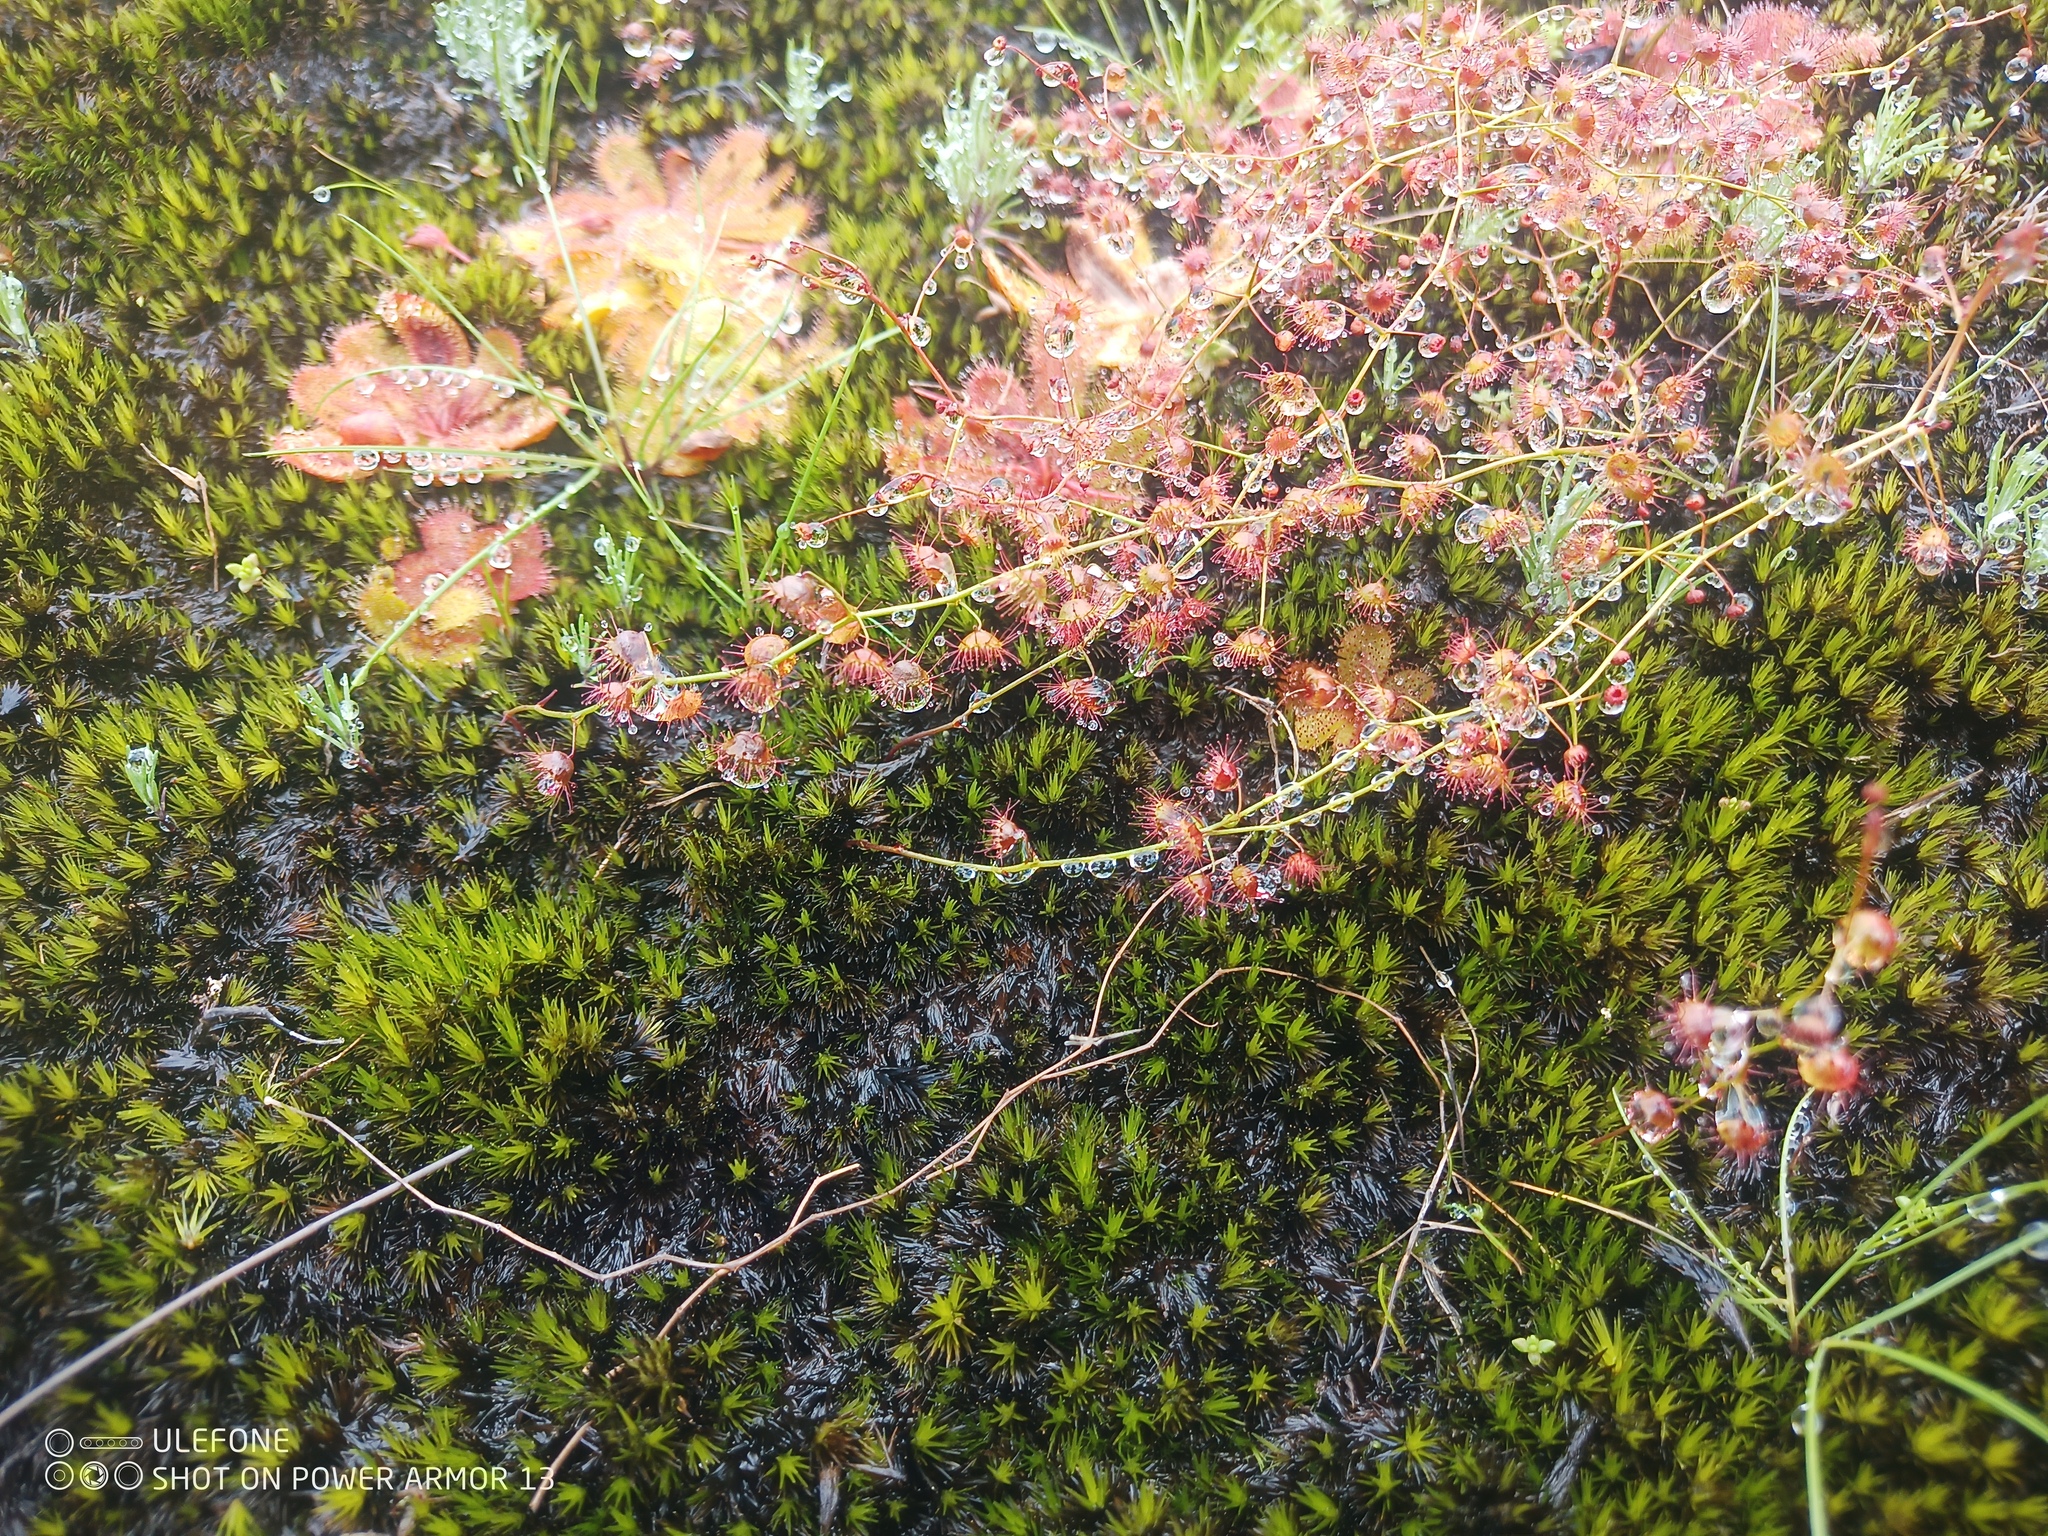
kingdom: Plantae
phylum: Tracheophyta
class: Magnoliopsida
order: Caryophyllales
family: Droseraceae
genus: Drosera
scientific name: Drosera macrantha
